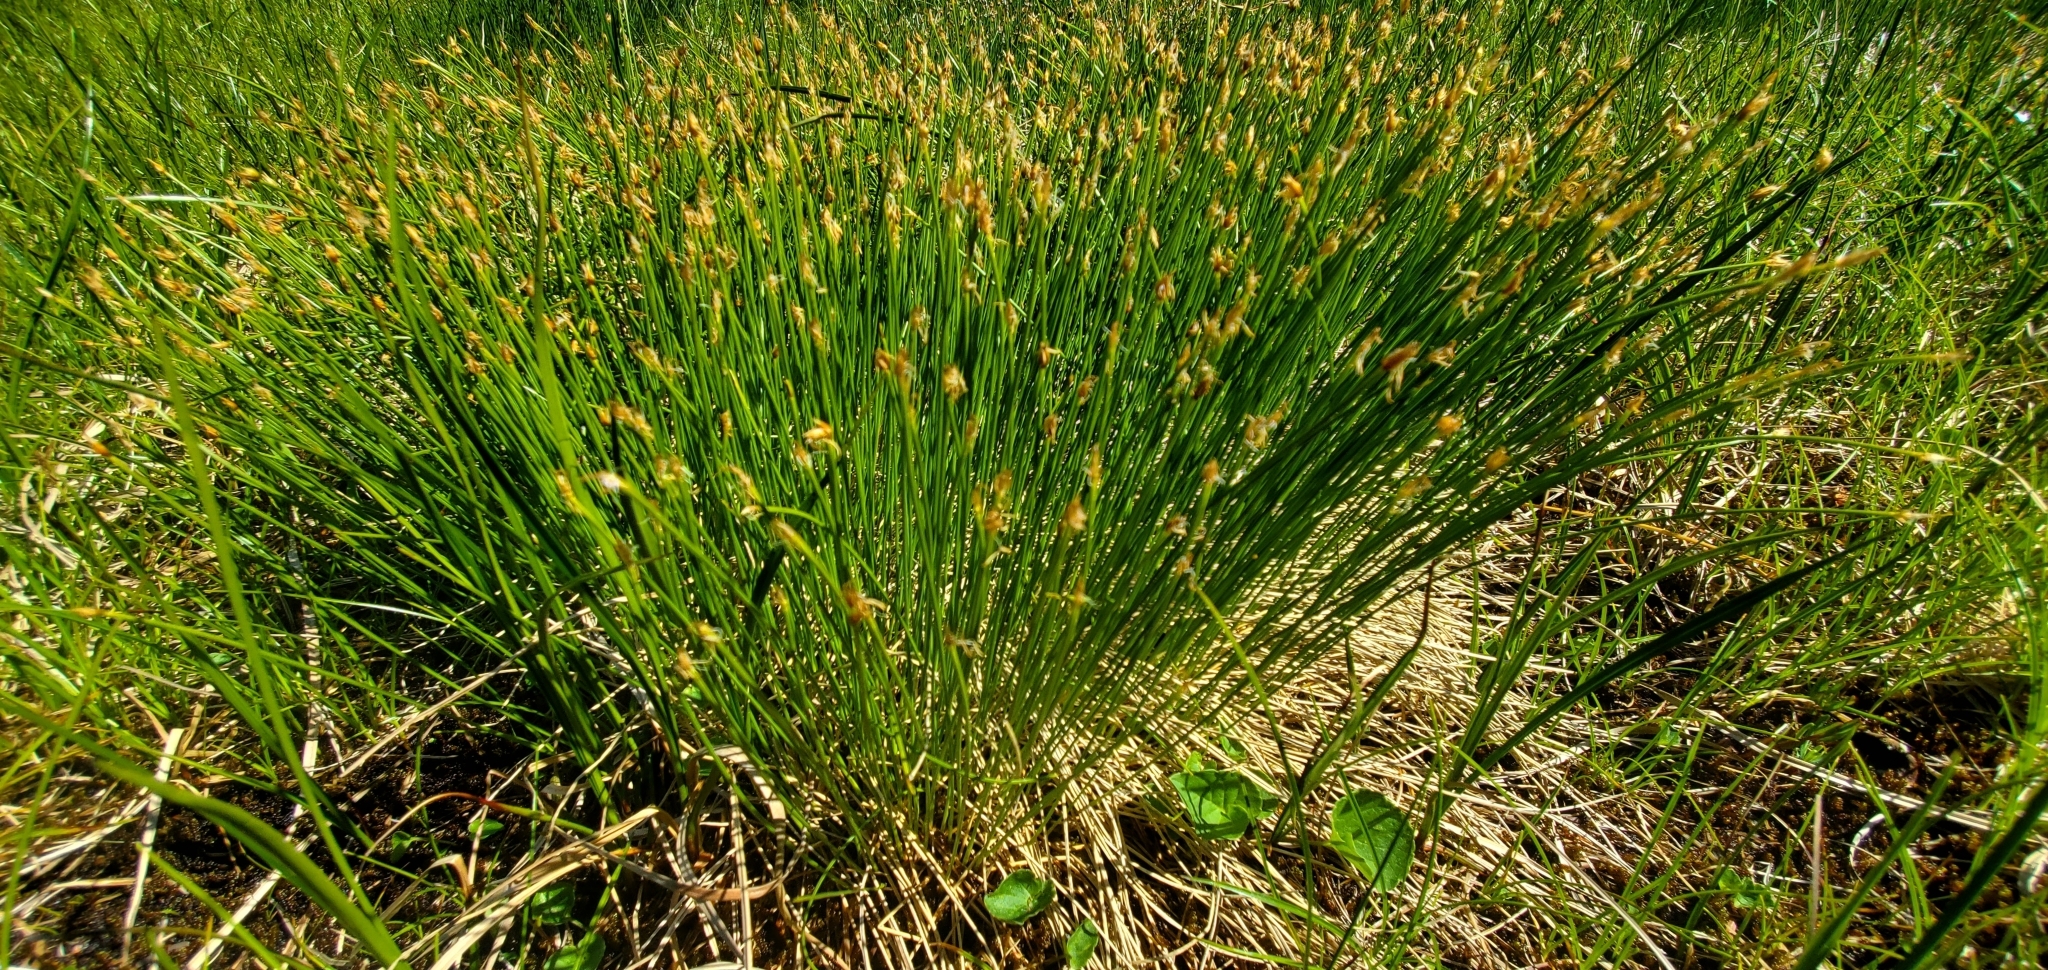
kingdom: Plantae
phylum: Tracheophyta
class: Liliopsida
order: Poales
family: Cyperaceae
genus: Trichophorum
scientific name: Trichophorum cespitosum
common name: Cespitose bulrush
